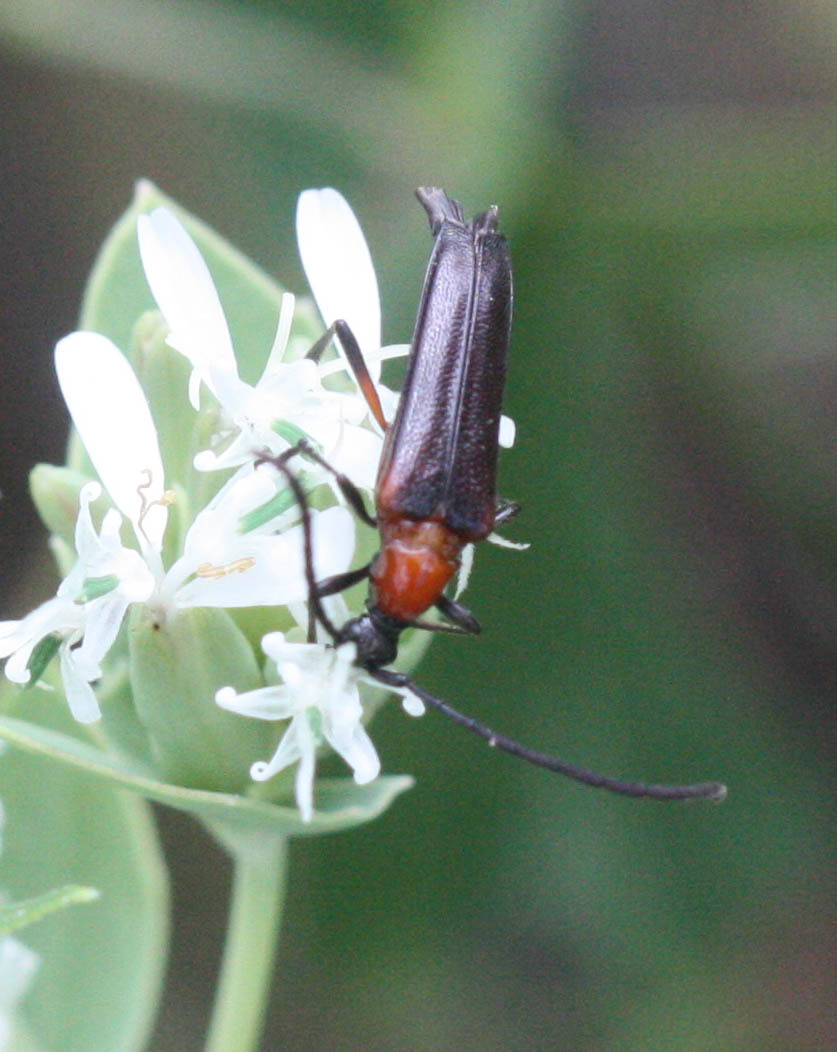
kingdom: Animalia
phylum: Arthropoda
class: Insecta
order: Coleoptera
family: Cerambycidae
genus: Cyphonotida
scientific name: Cyphonotida rostrata
